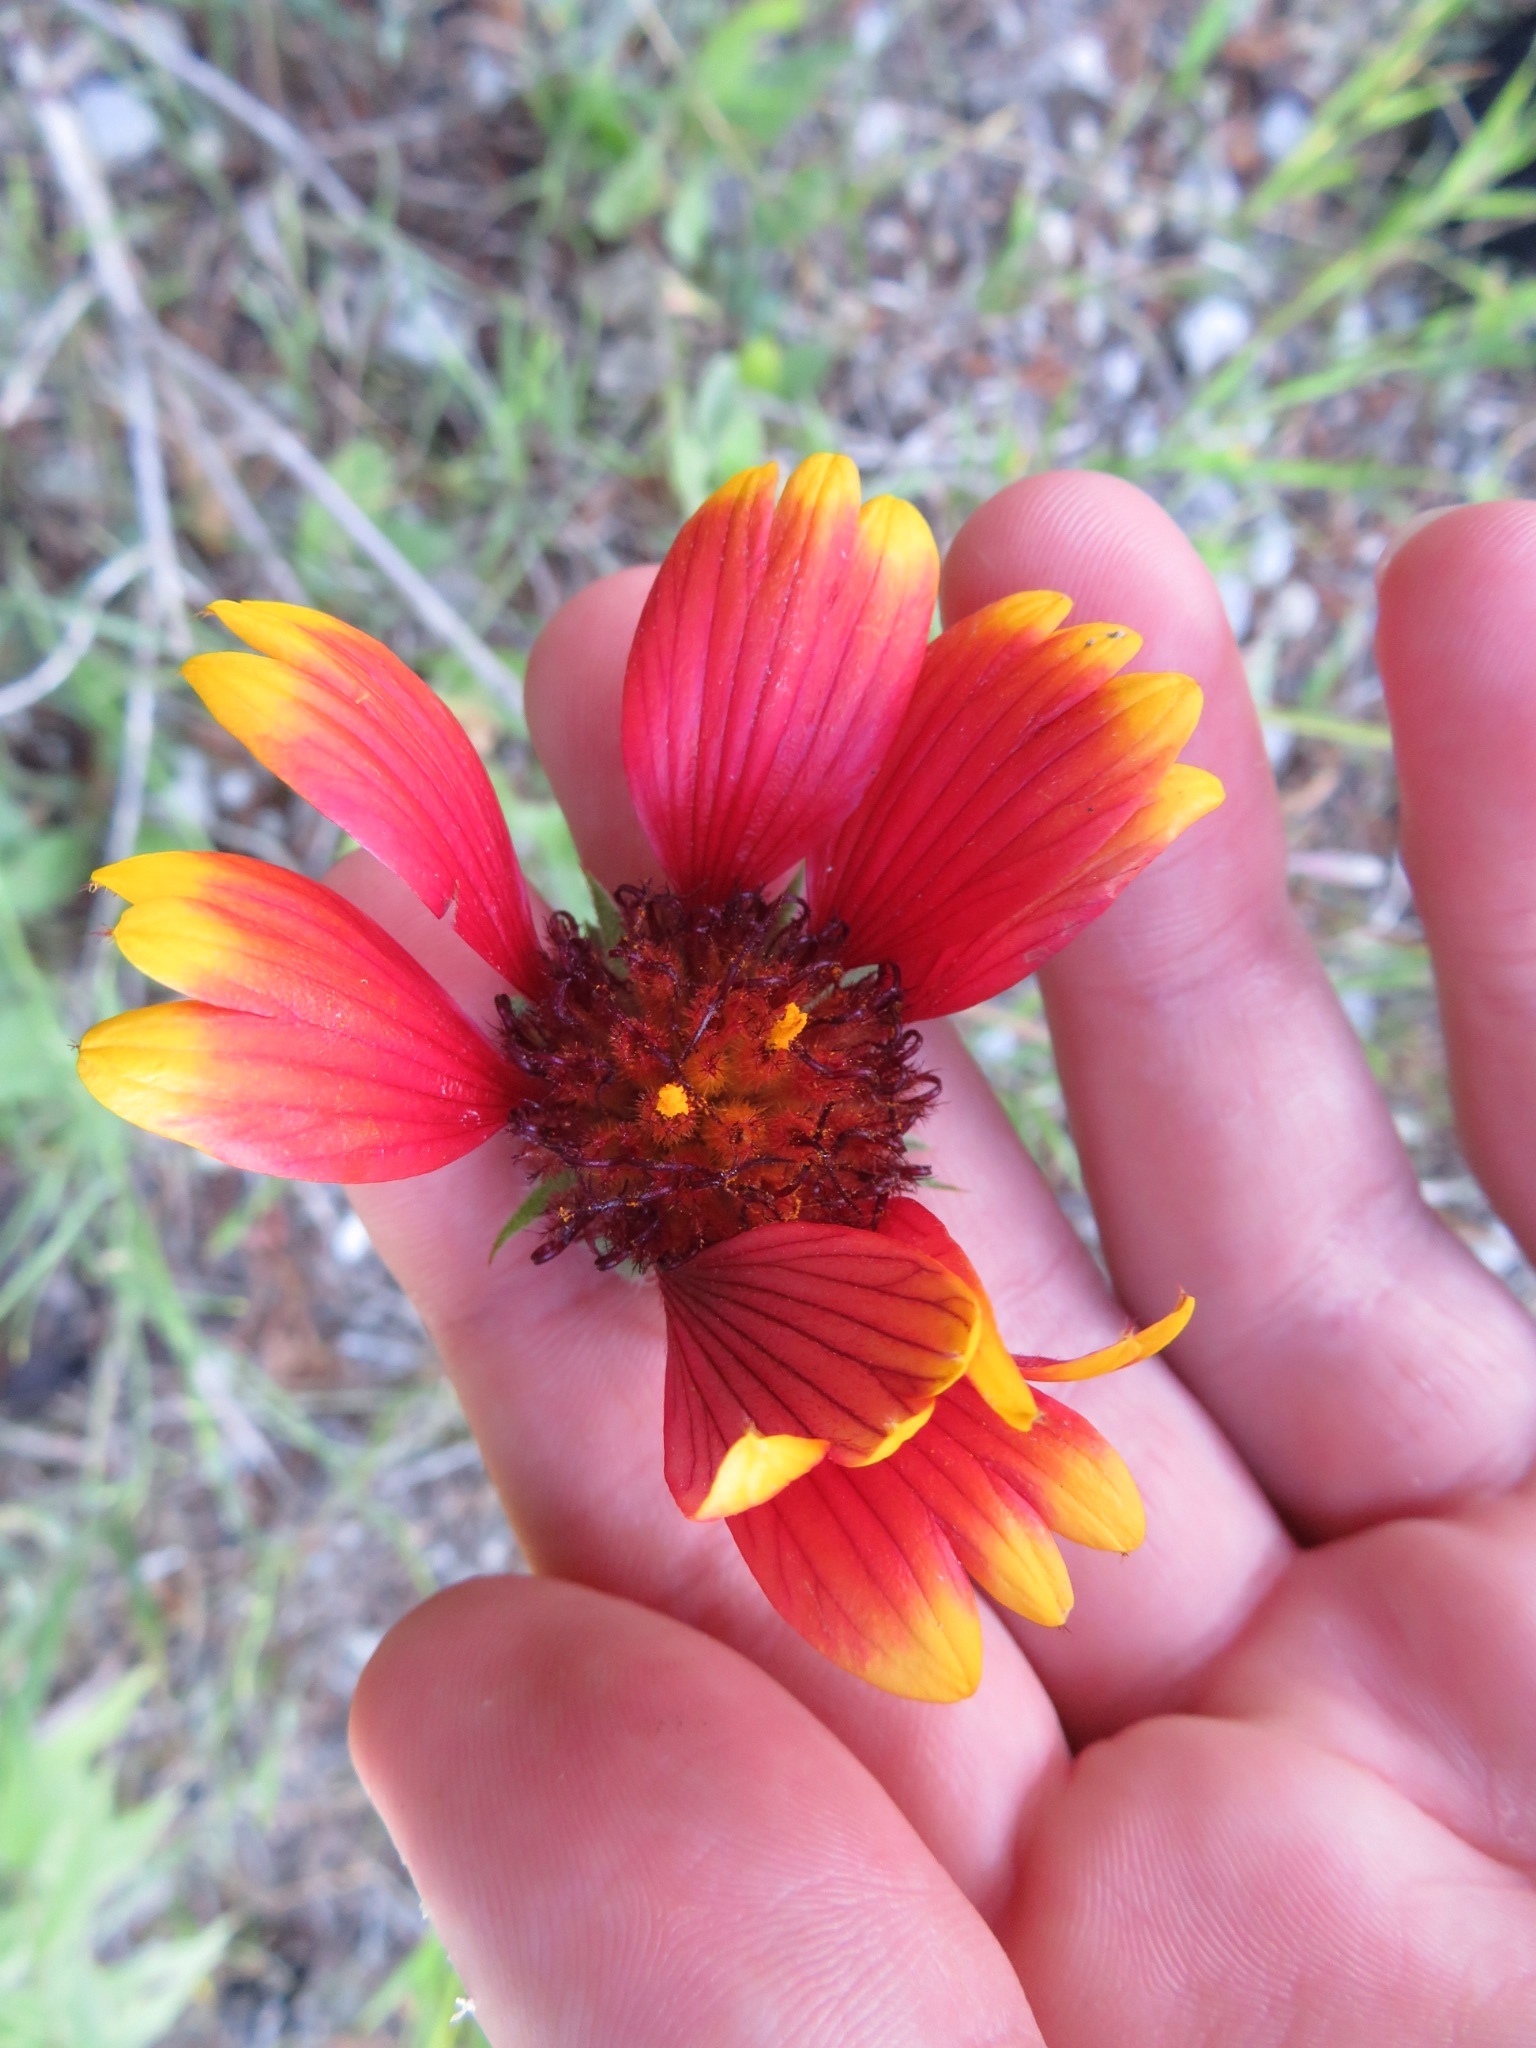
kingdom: Plantae
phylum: Tracheophyta
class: Magnoliopsida
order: Asterales
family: Asteraceae
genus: Gaillardia
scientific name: Gaillardia pulchella
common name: Firewheel
